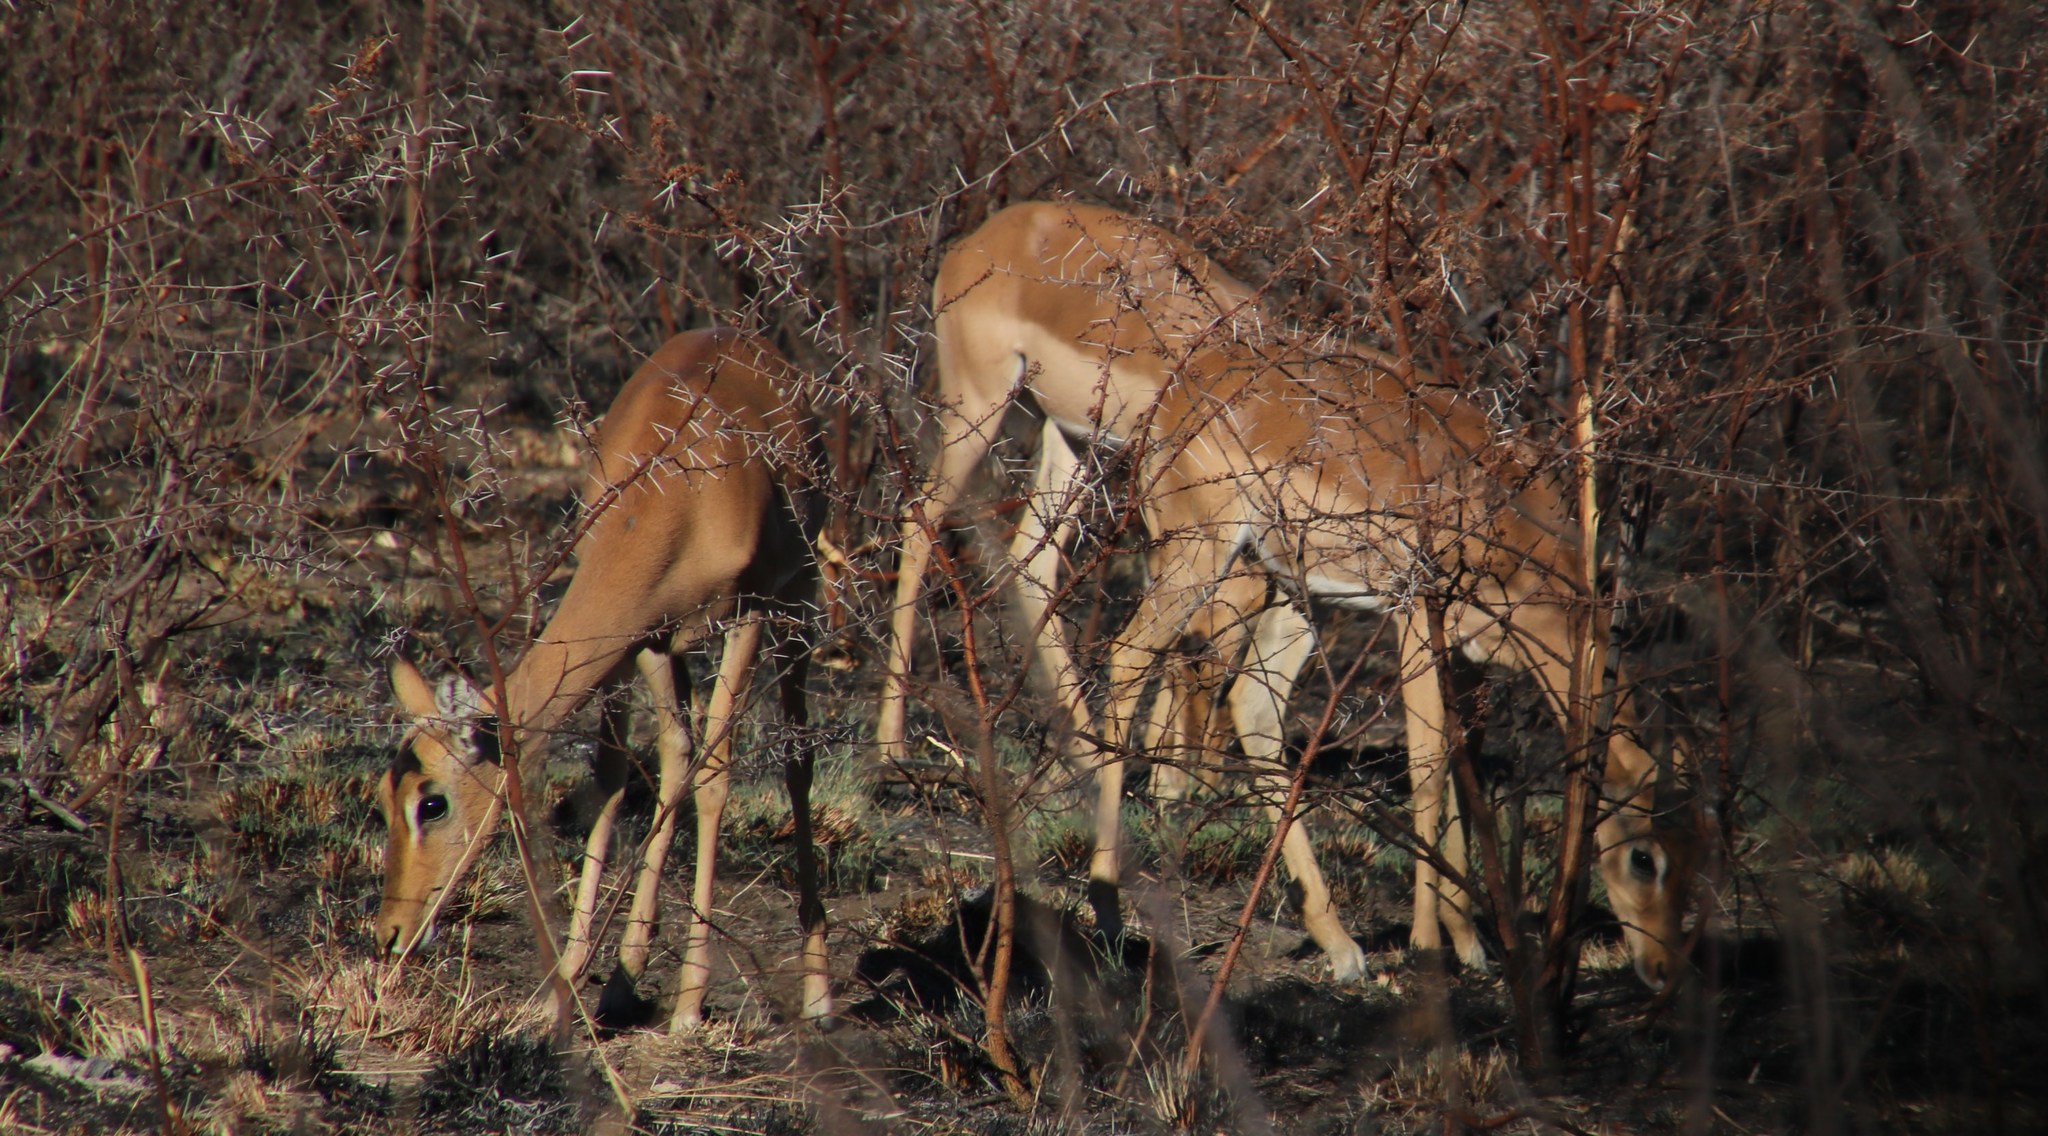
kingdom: Animalia
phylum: Chordata
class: Mammalia
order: Artiodactyla
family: Bovidae
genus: Aepyceros
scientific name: Aepyceros melampus
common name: Impala
